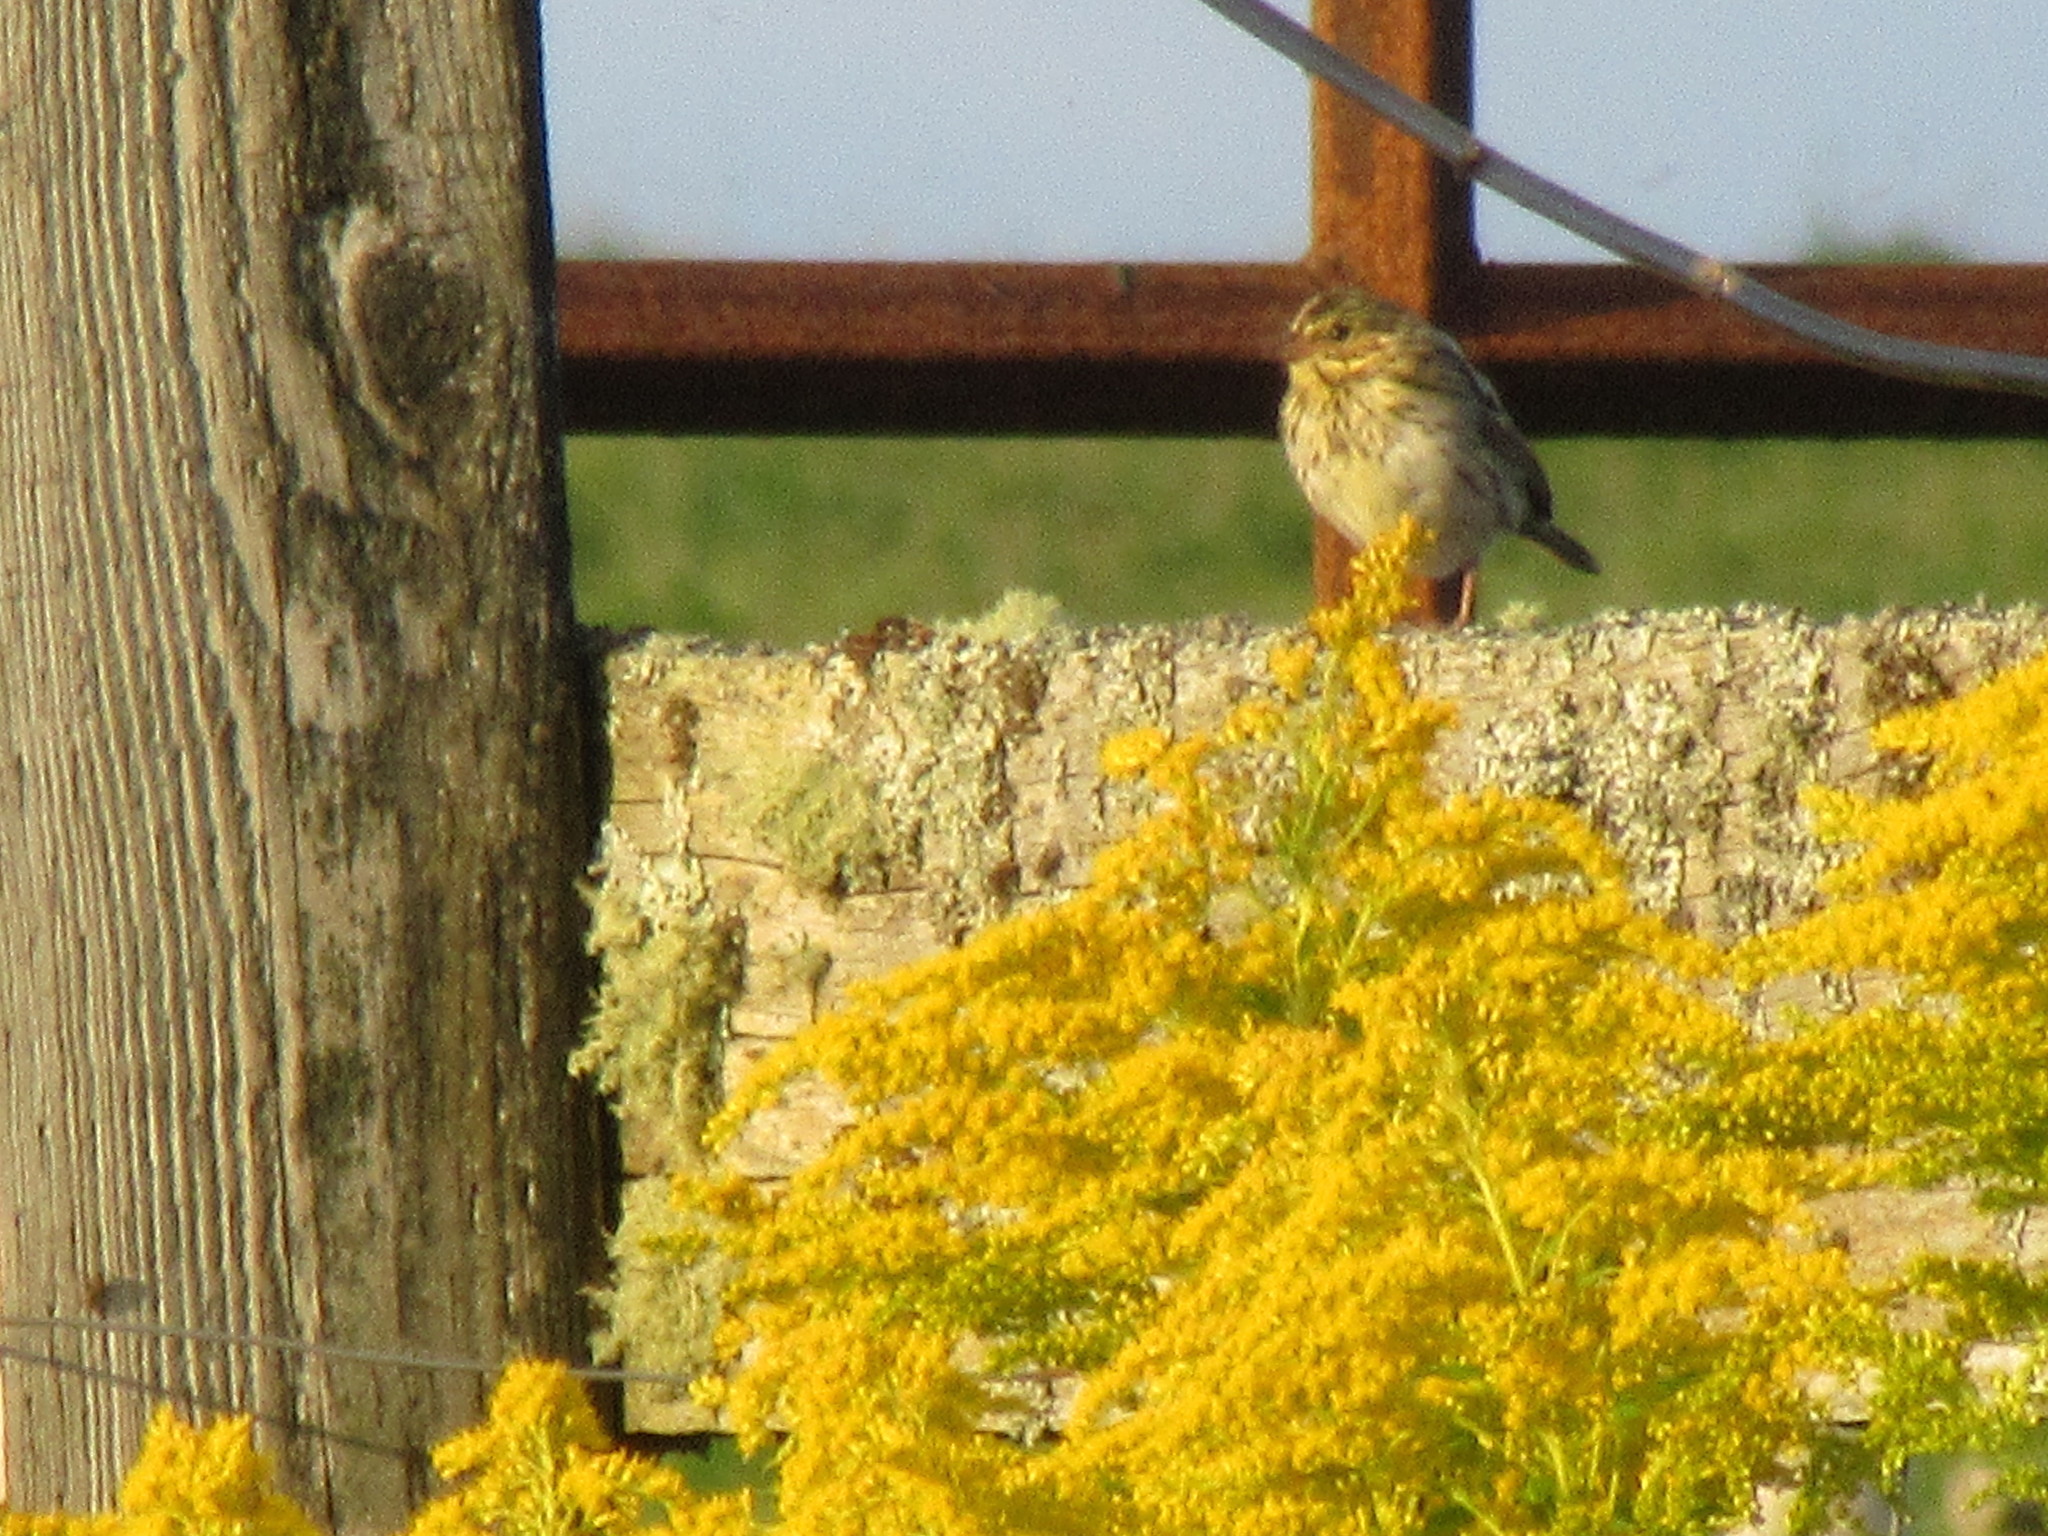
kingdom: Animalia
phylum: Chordata
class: Aves
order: Passeriformes
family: Passerellidae
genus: Passerculus
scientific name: Passerculus sandwichensis
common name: Savannah sparrow
